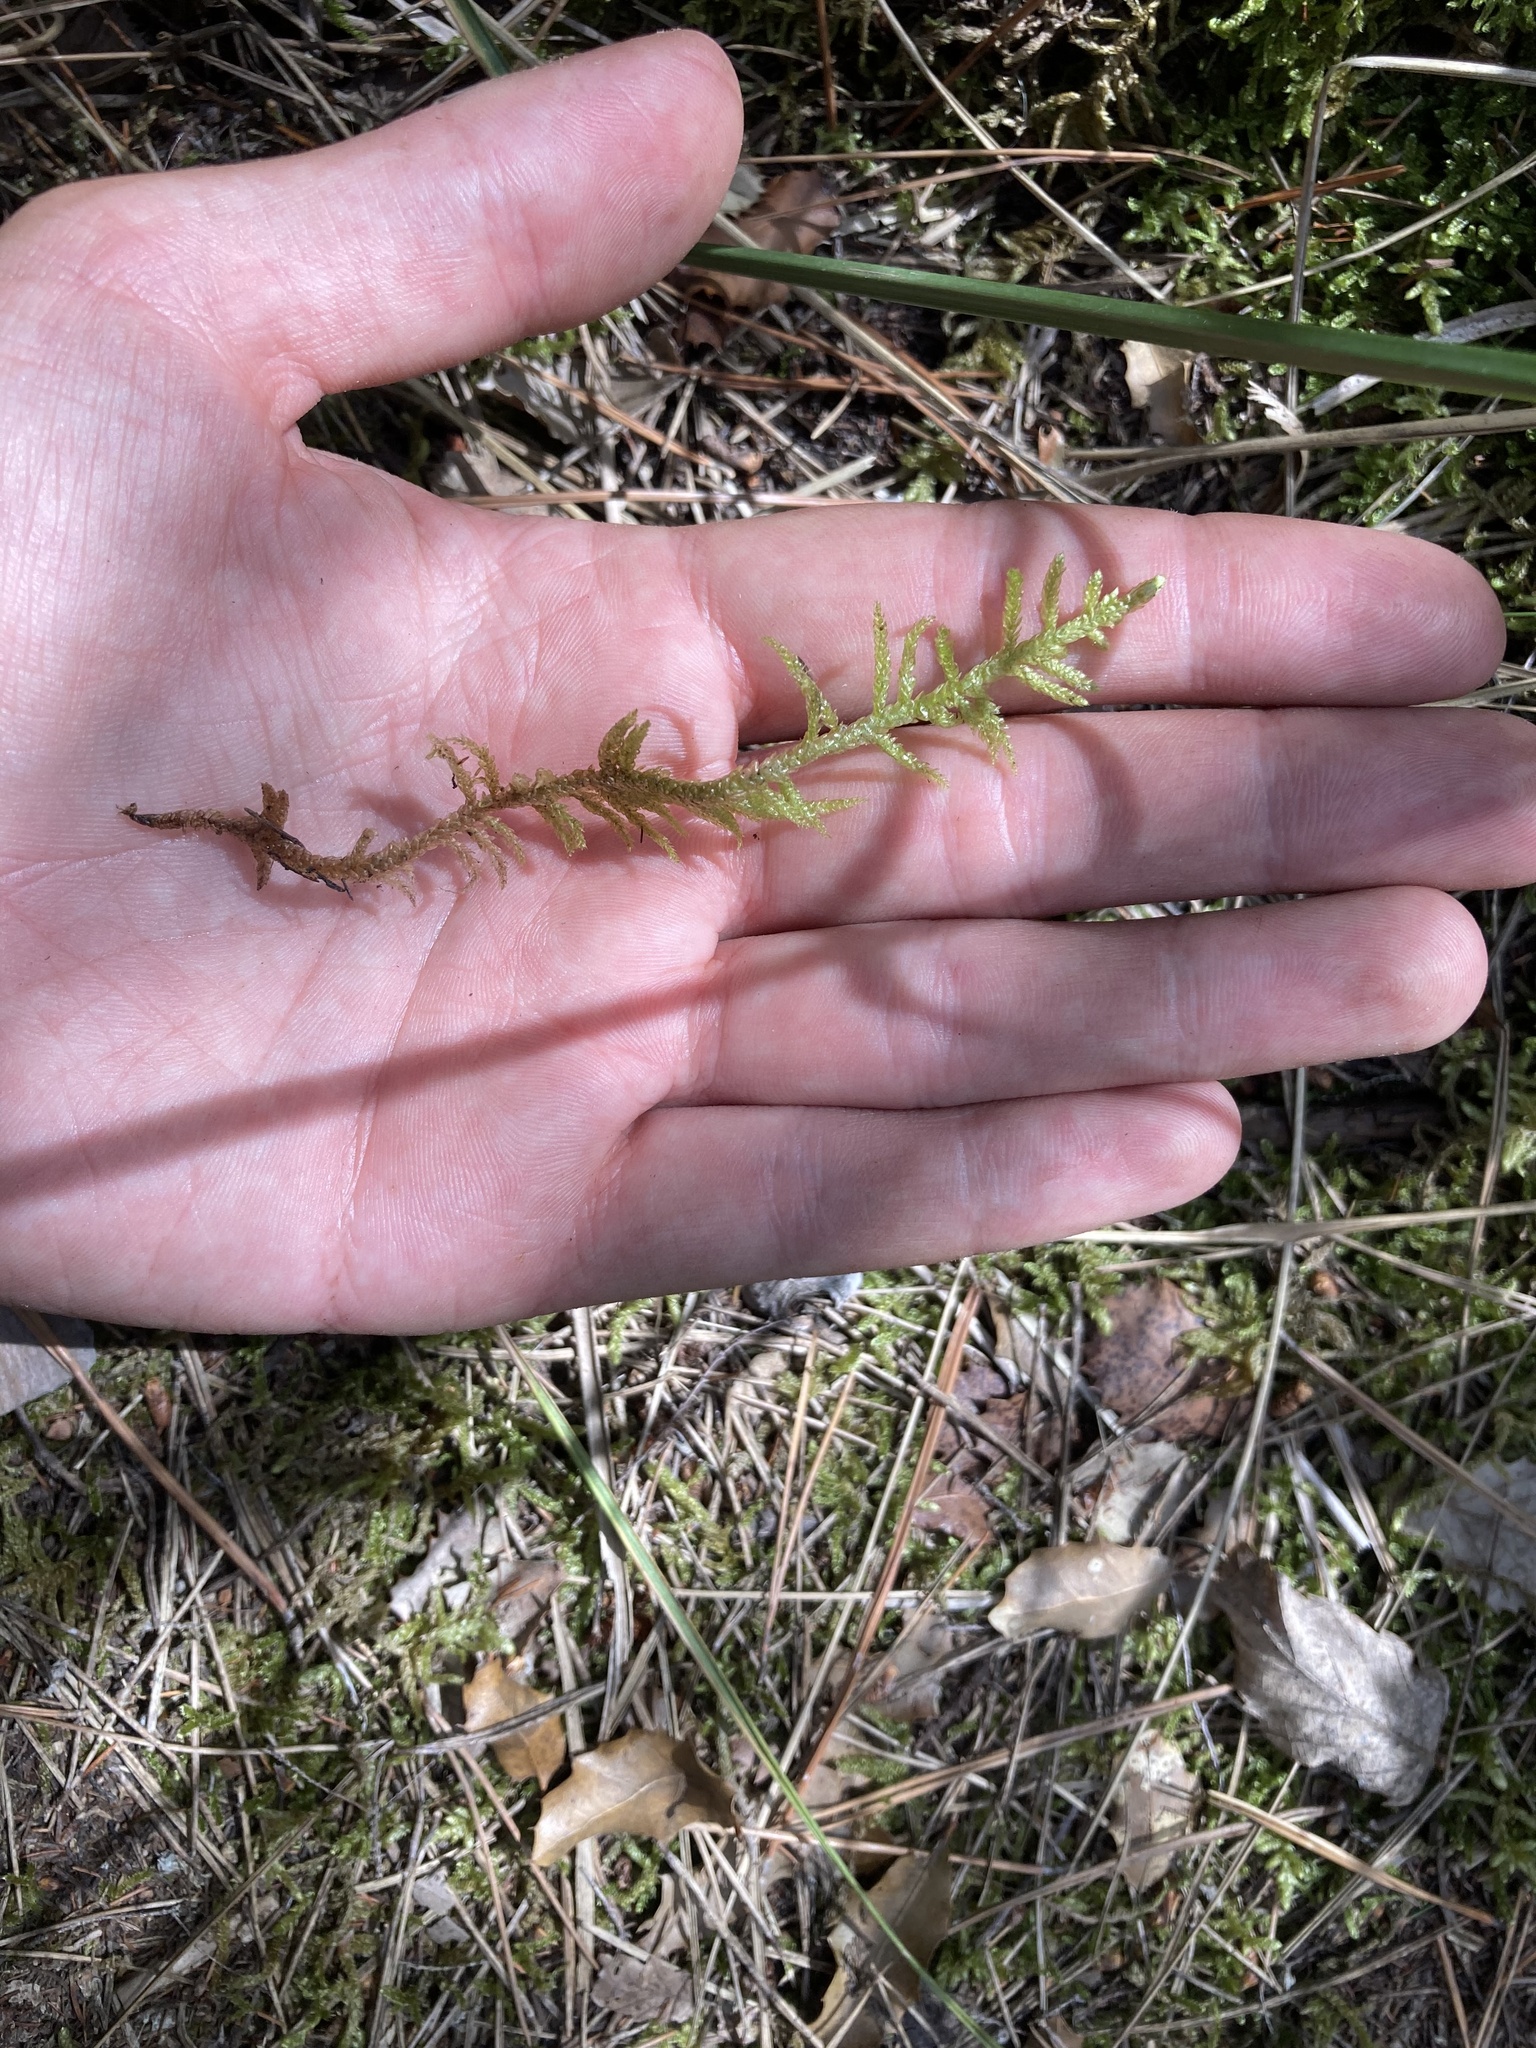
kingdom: Plantae
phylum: Bryophyta
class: Bryopsida
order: Hypnales
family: Brachytheciaceae
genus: Pseudoscleropodium
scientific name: Pseudoscleropodium purum
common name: Neat feather-moss
